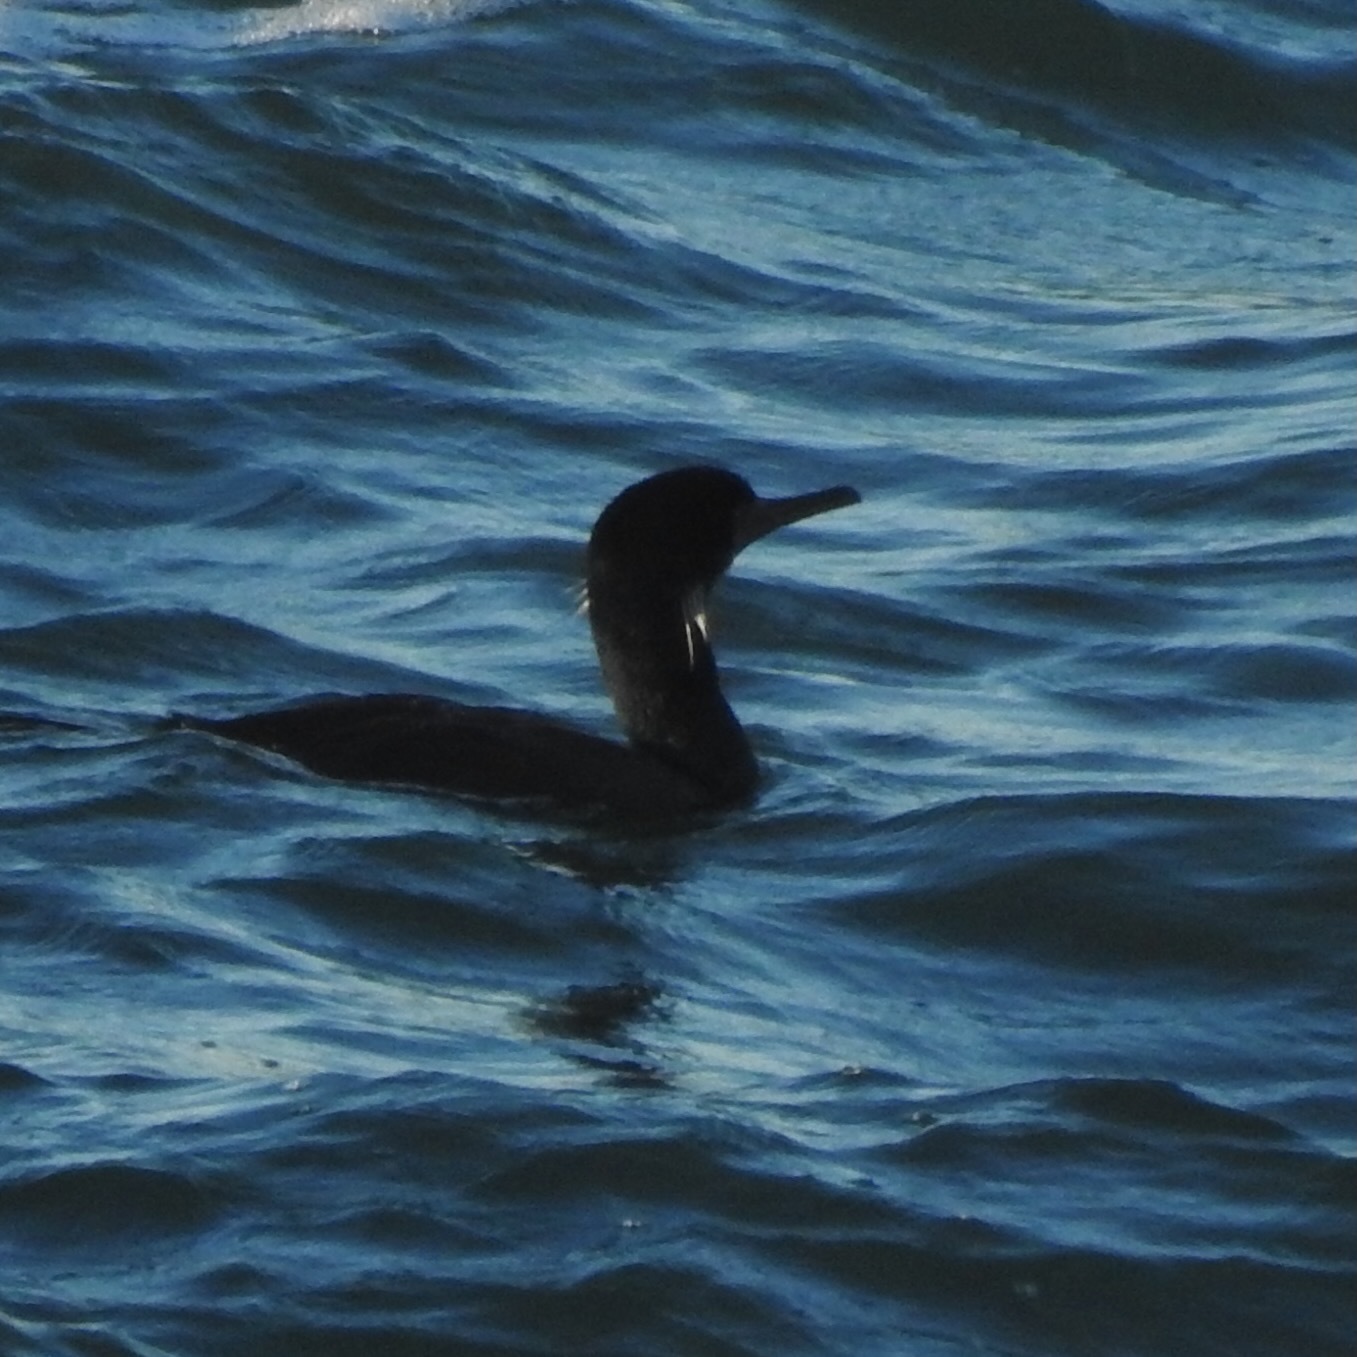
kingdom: Animalia
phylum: Chordata
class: Aves
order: Suliformes
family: Phalacrocoracidae
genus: Urile
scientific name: Urile penicillatus
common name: Brandt's cormorant
